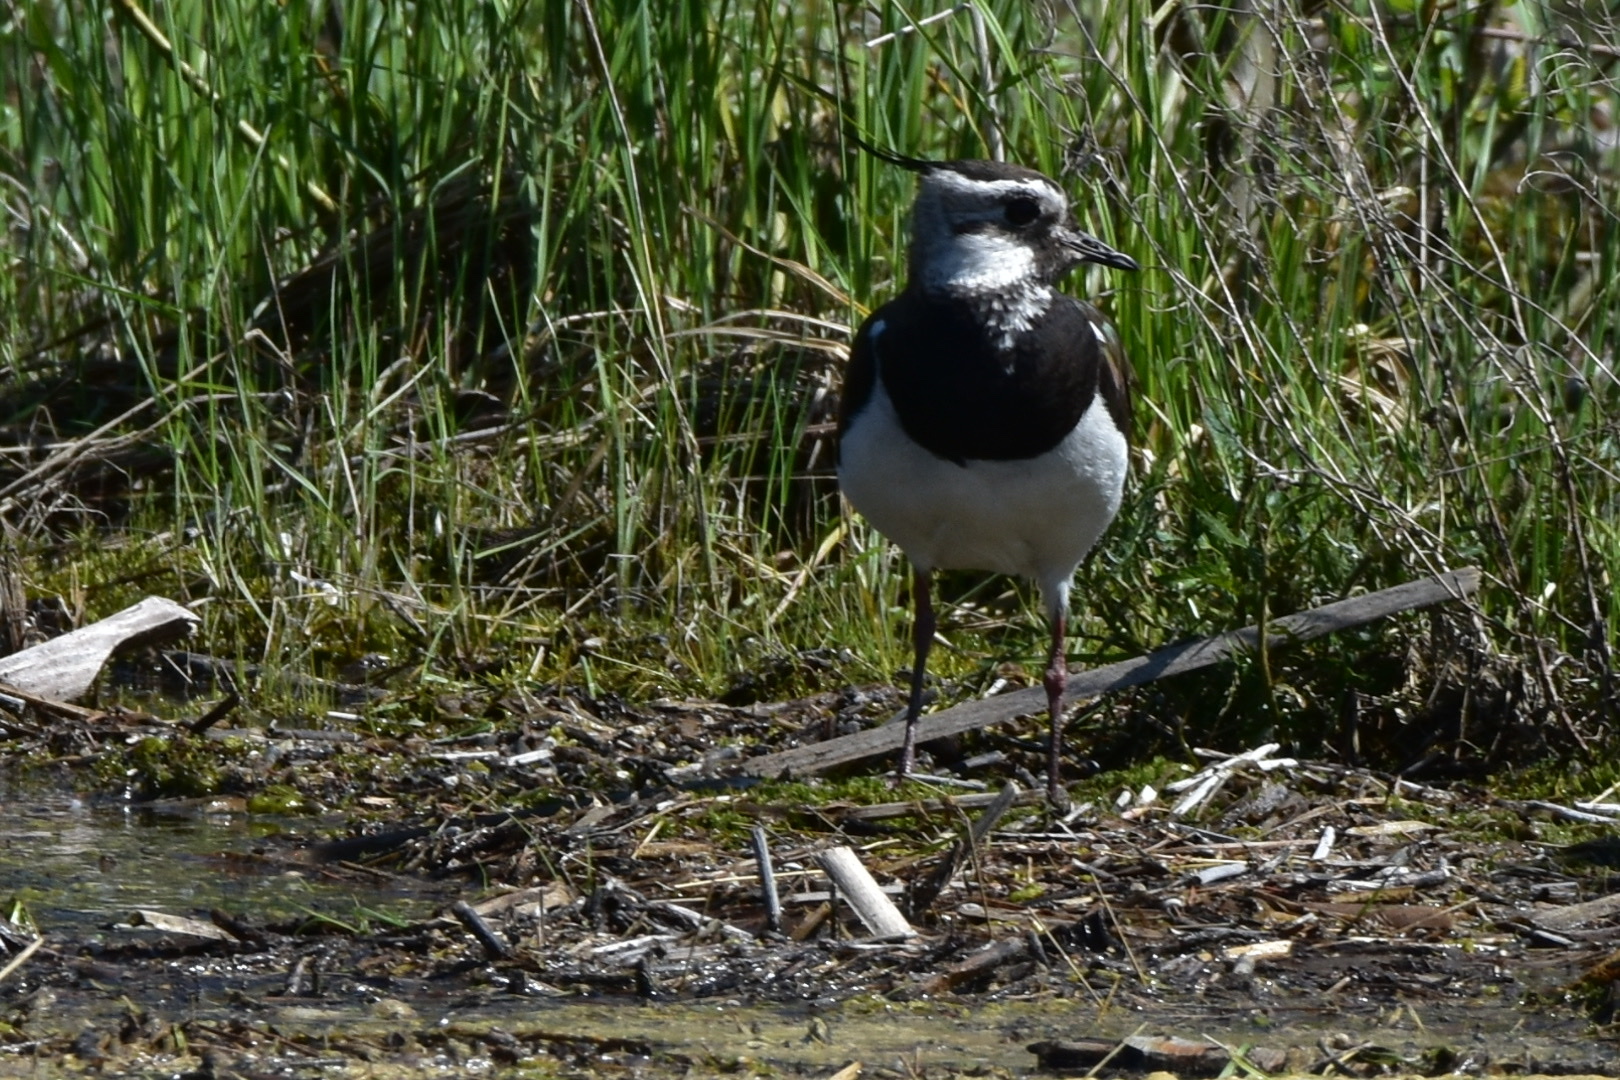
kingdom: Animalia
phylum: Chordata
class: Aves
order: Charadriiformes
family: Charadriidae
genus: Vanellus
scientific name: Vanellus vanellus
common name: Northern lapwing
